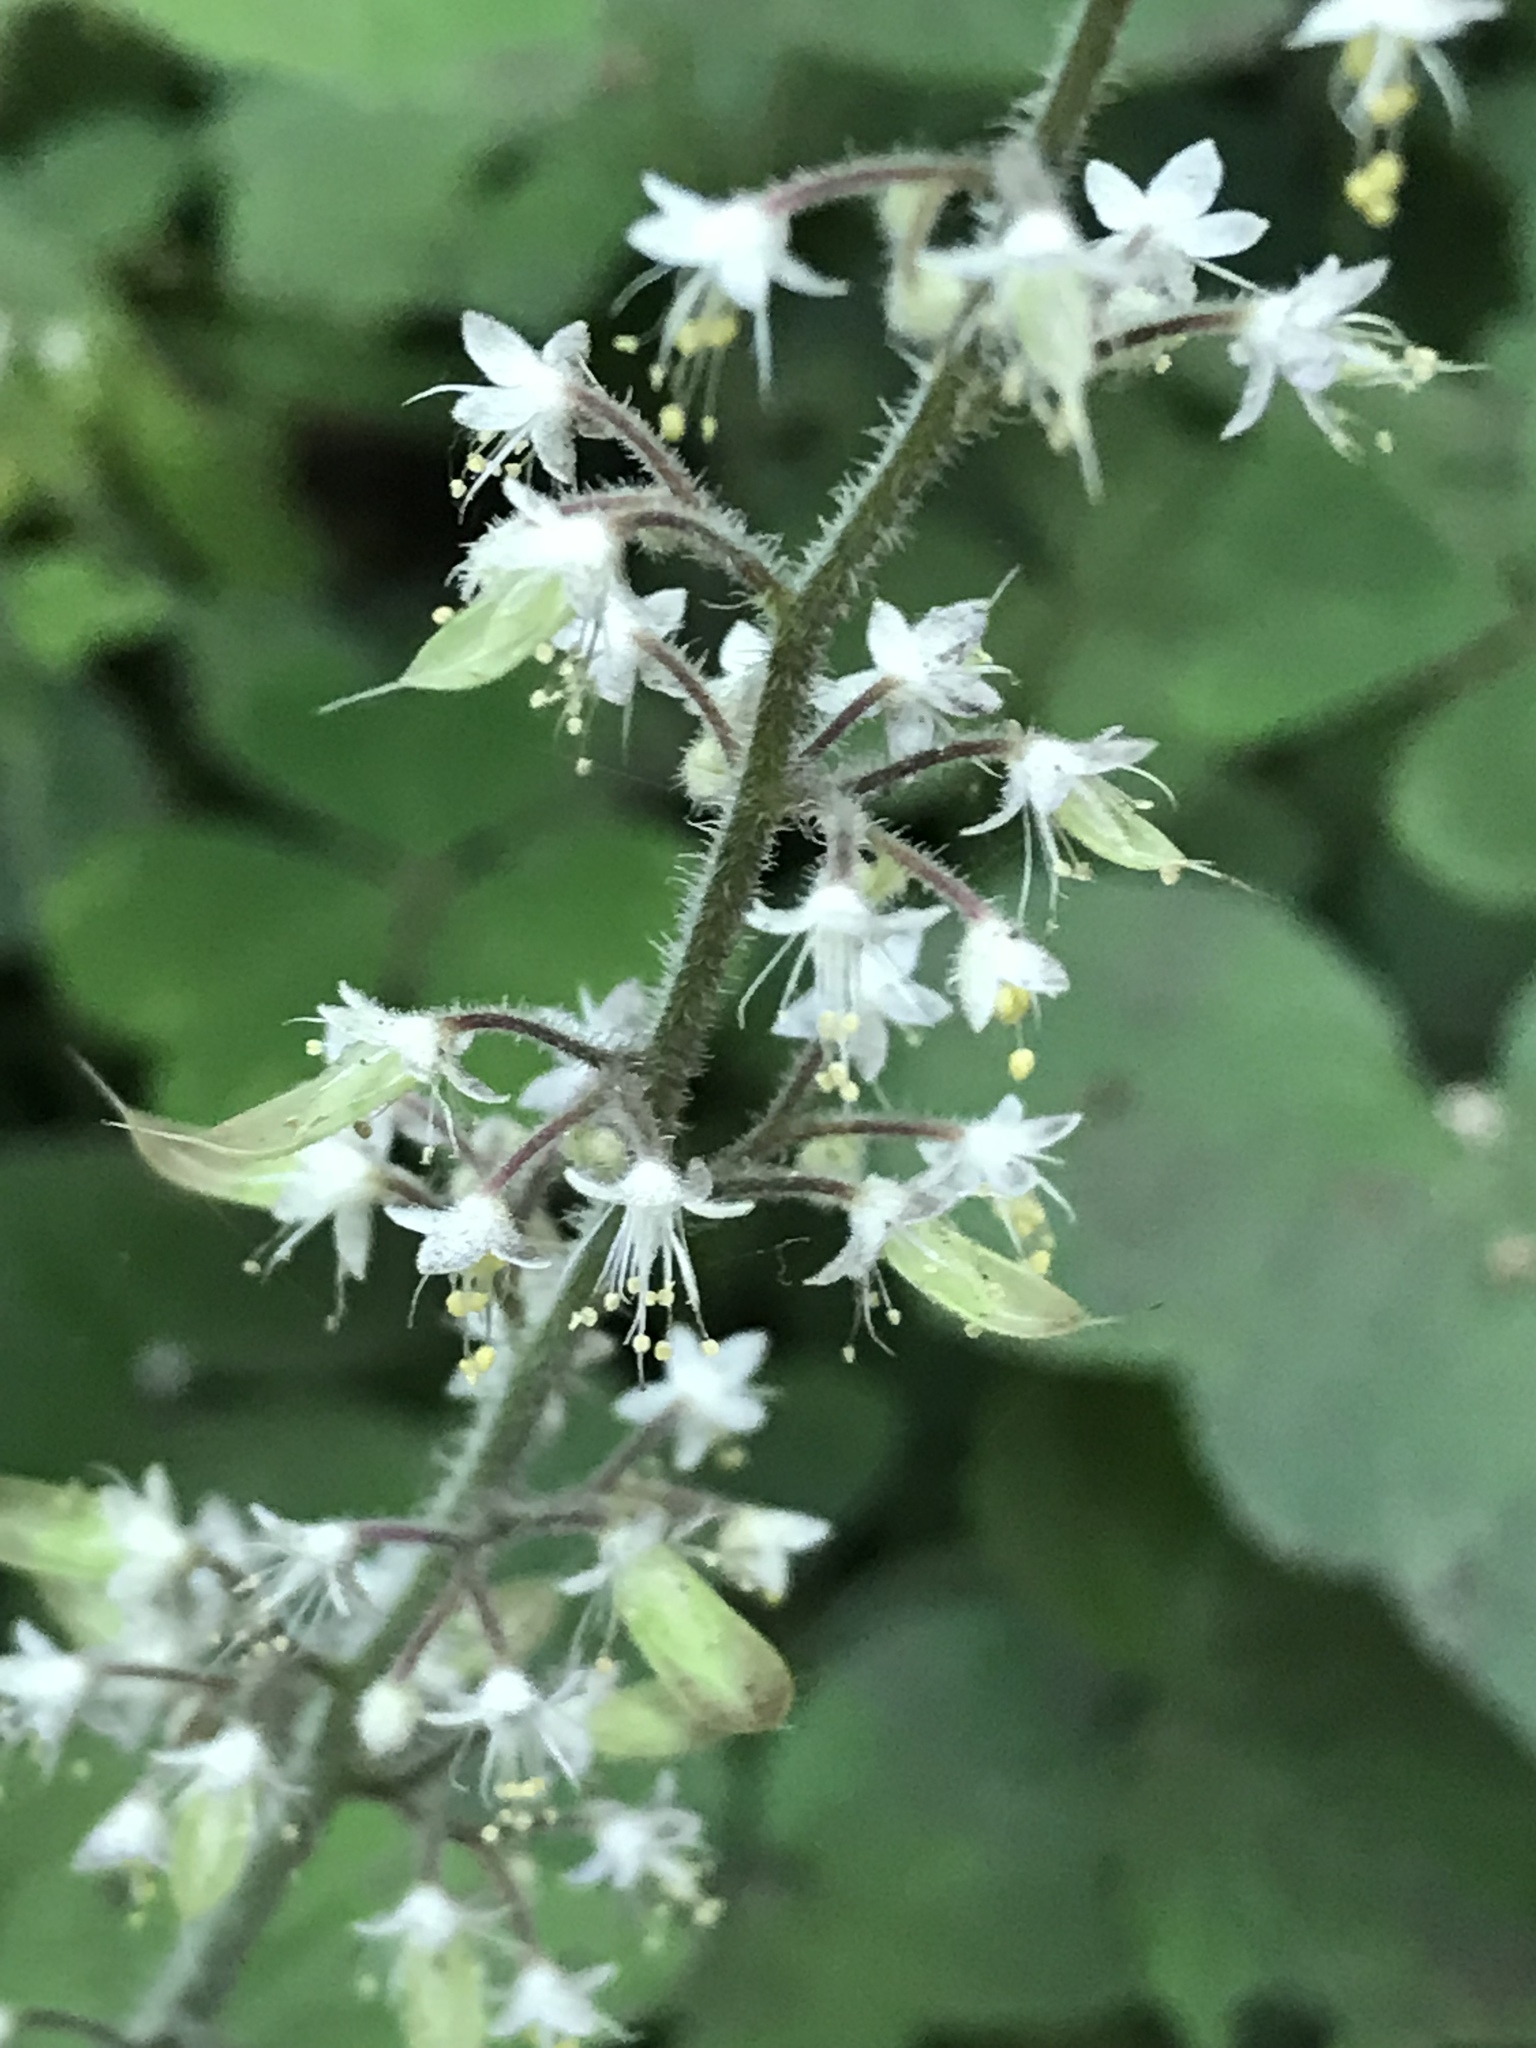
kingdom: Plantae
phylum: Tracheophyta
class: Magnoliopsida
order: Saxifragales
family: Saxifragaceae
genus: Tiarella
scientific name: Tiarella trifoliata
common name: Sugar-scoop
